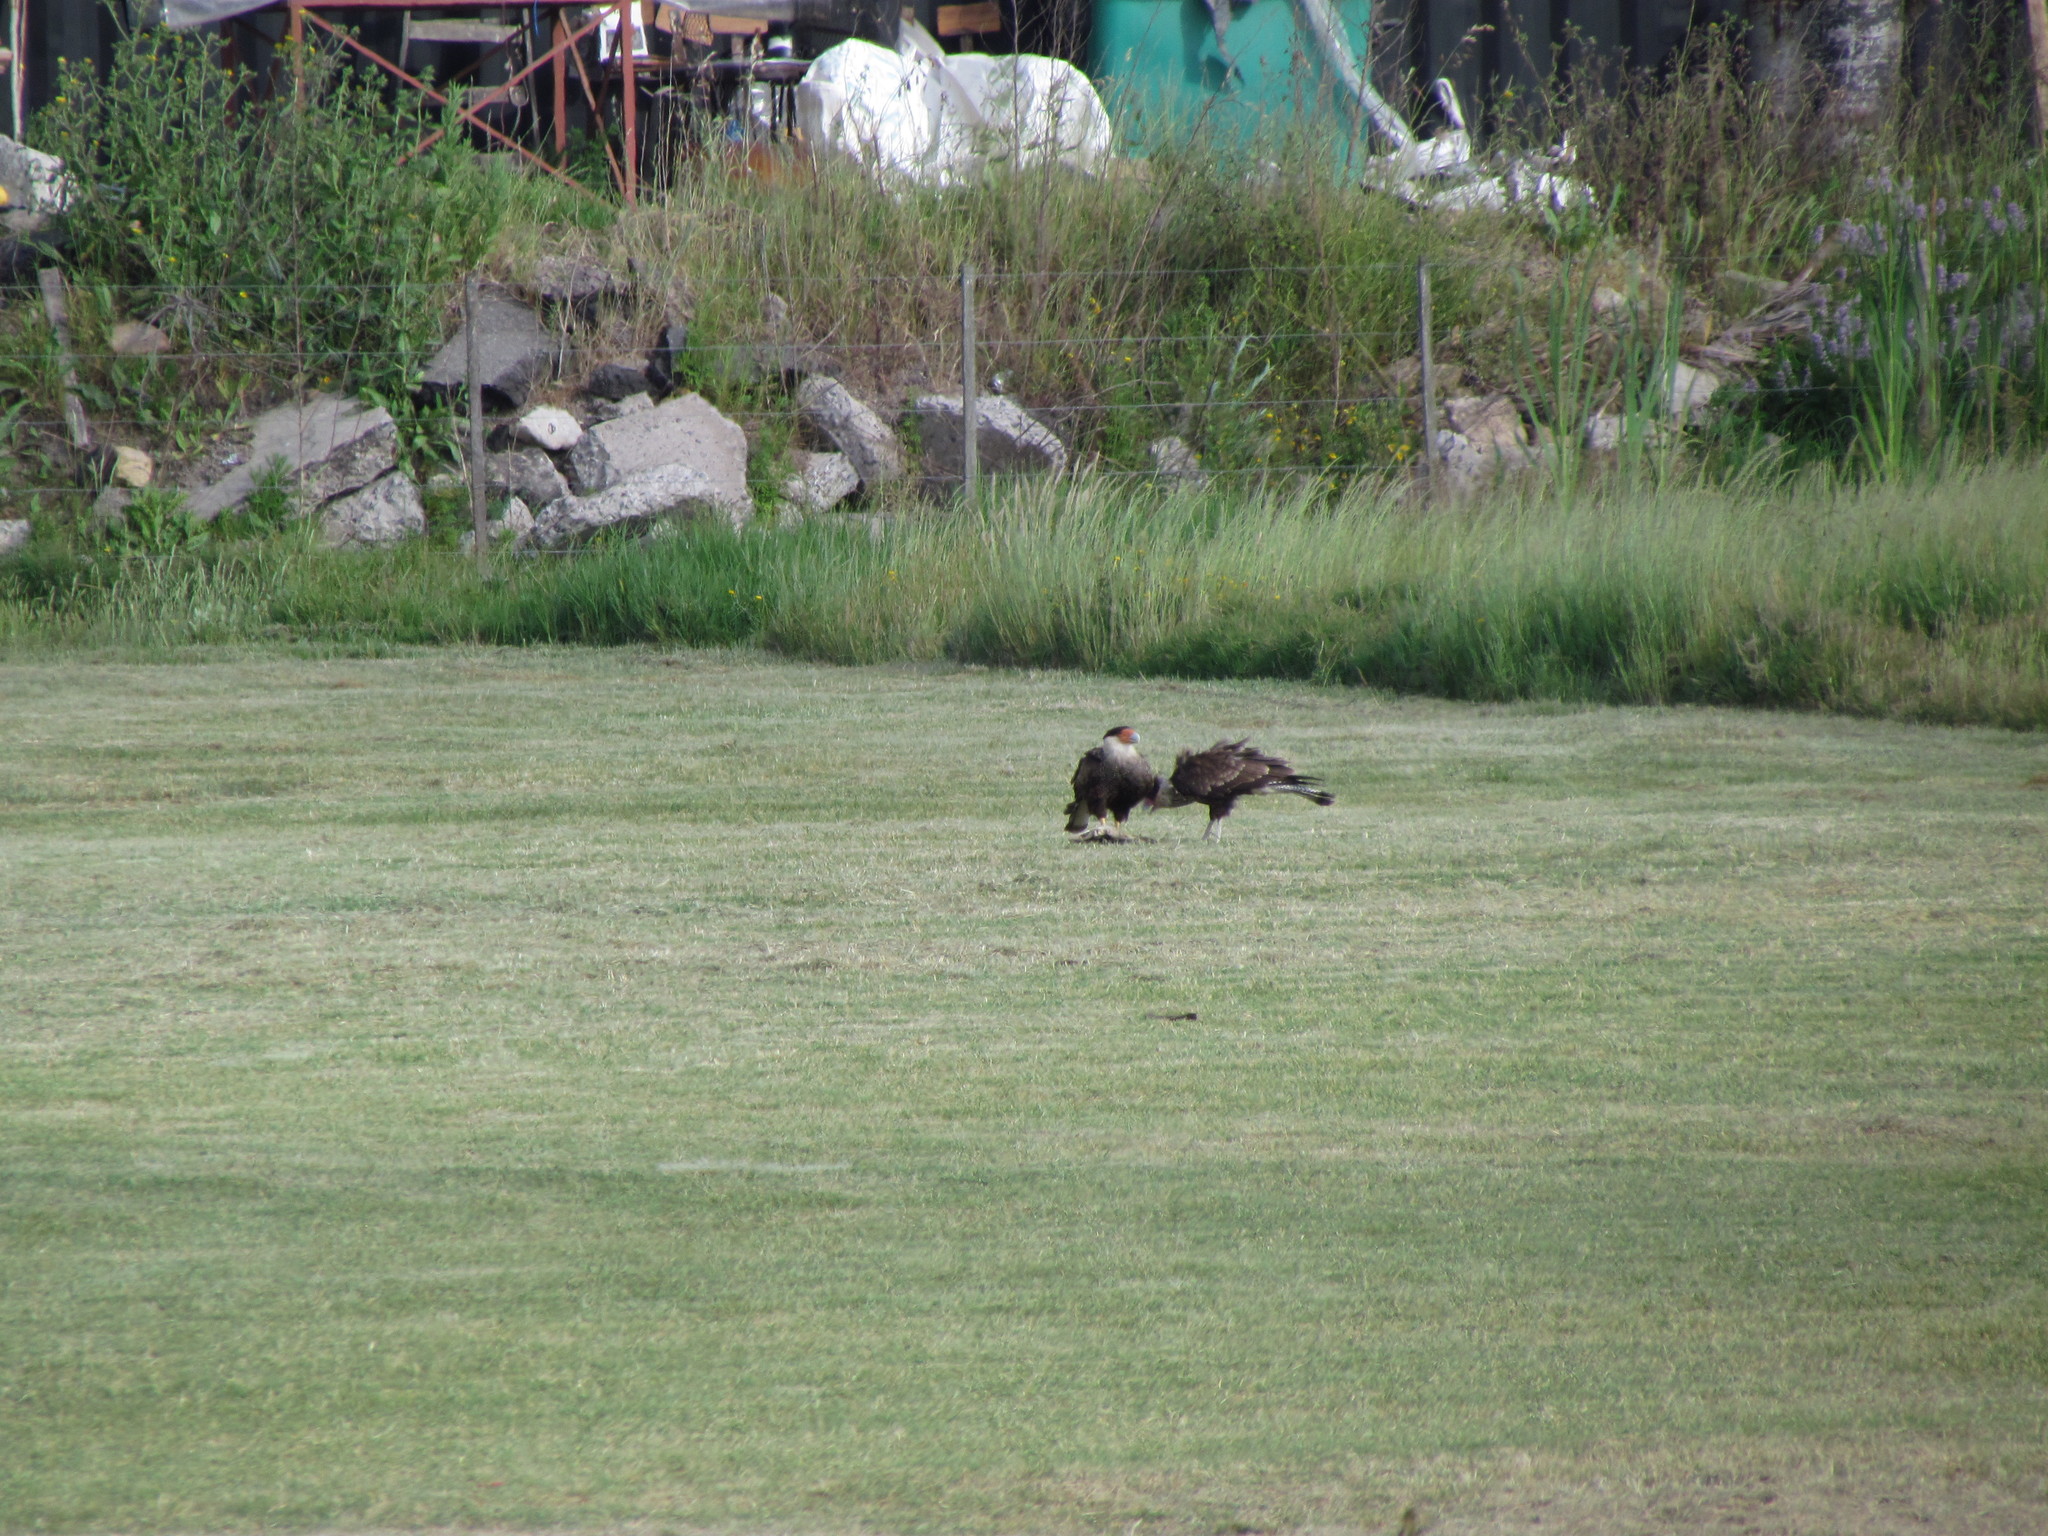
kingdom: Animalia
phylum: Chordata
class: Aves
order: Falconiformes
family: Falconidae
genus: Caracara
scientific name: Caracara plancus
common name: Southern caracara
